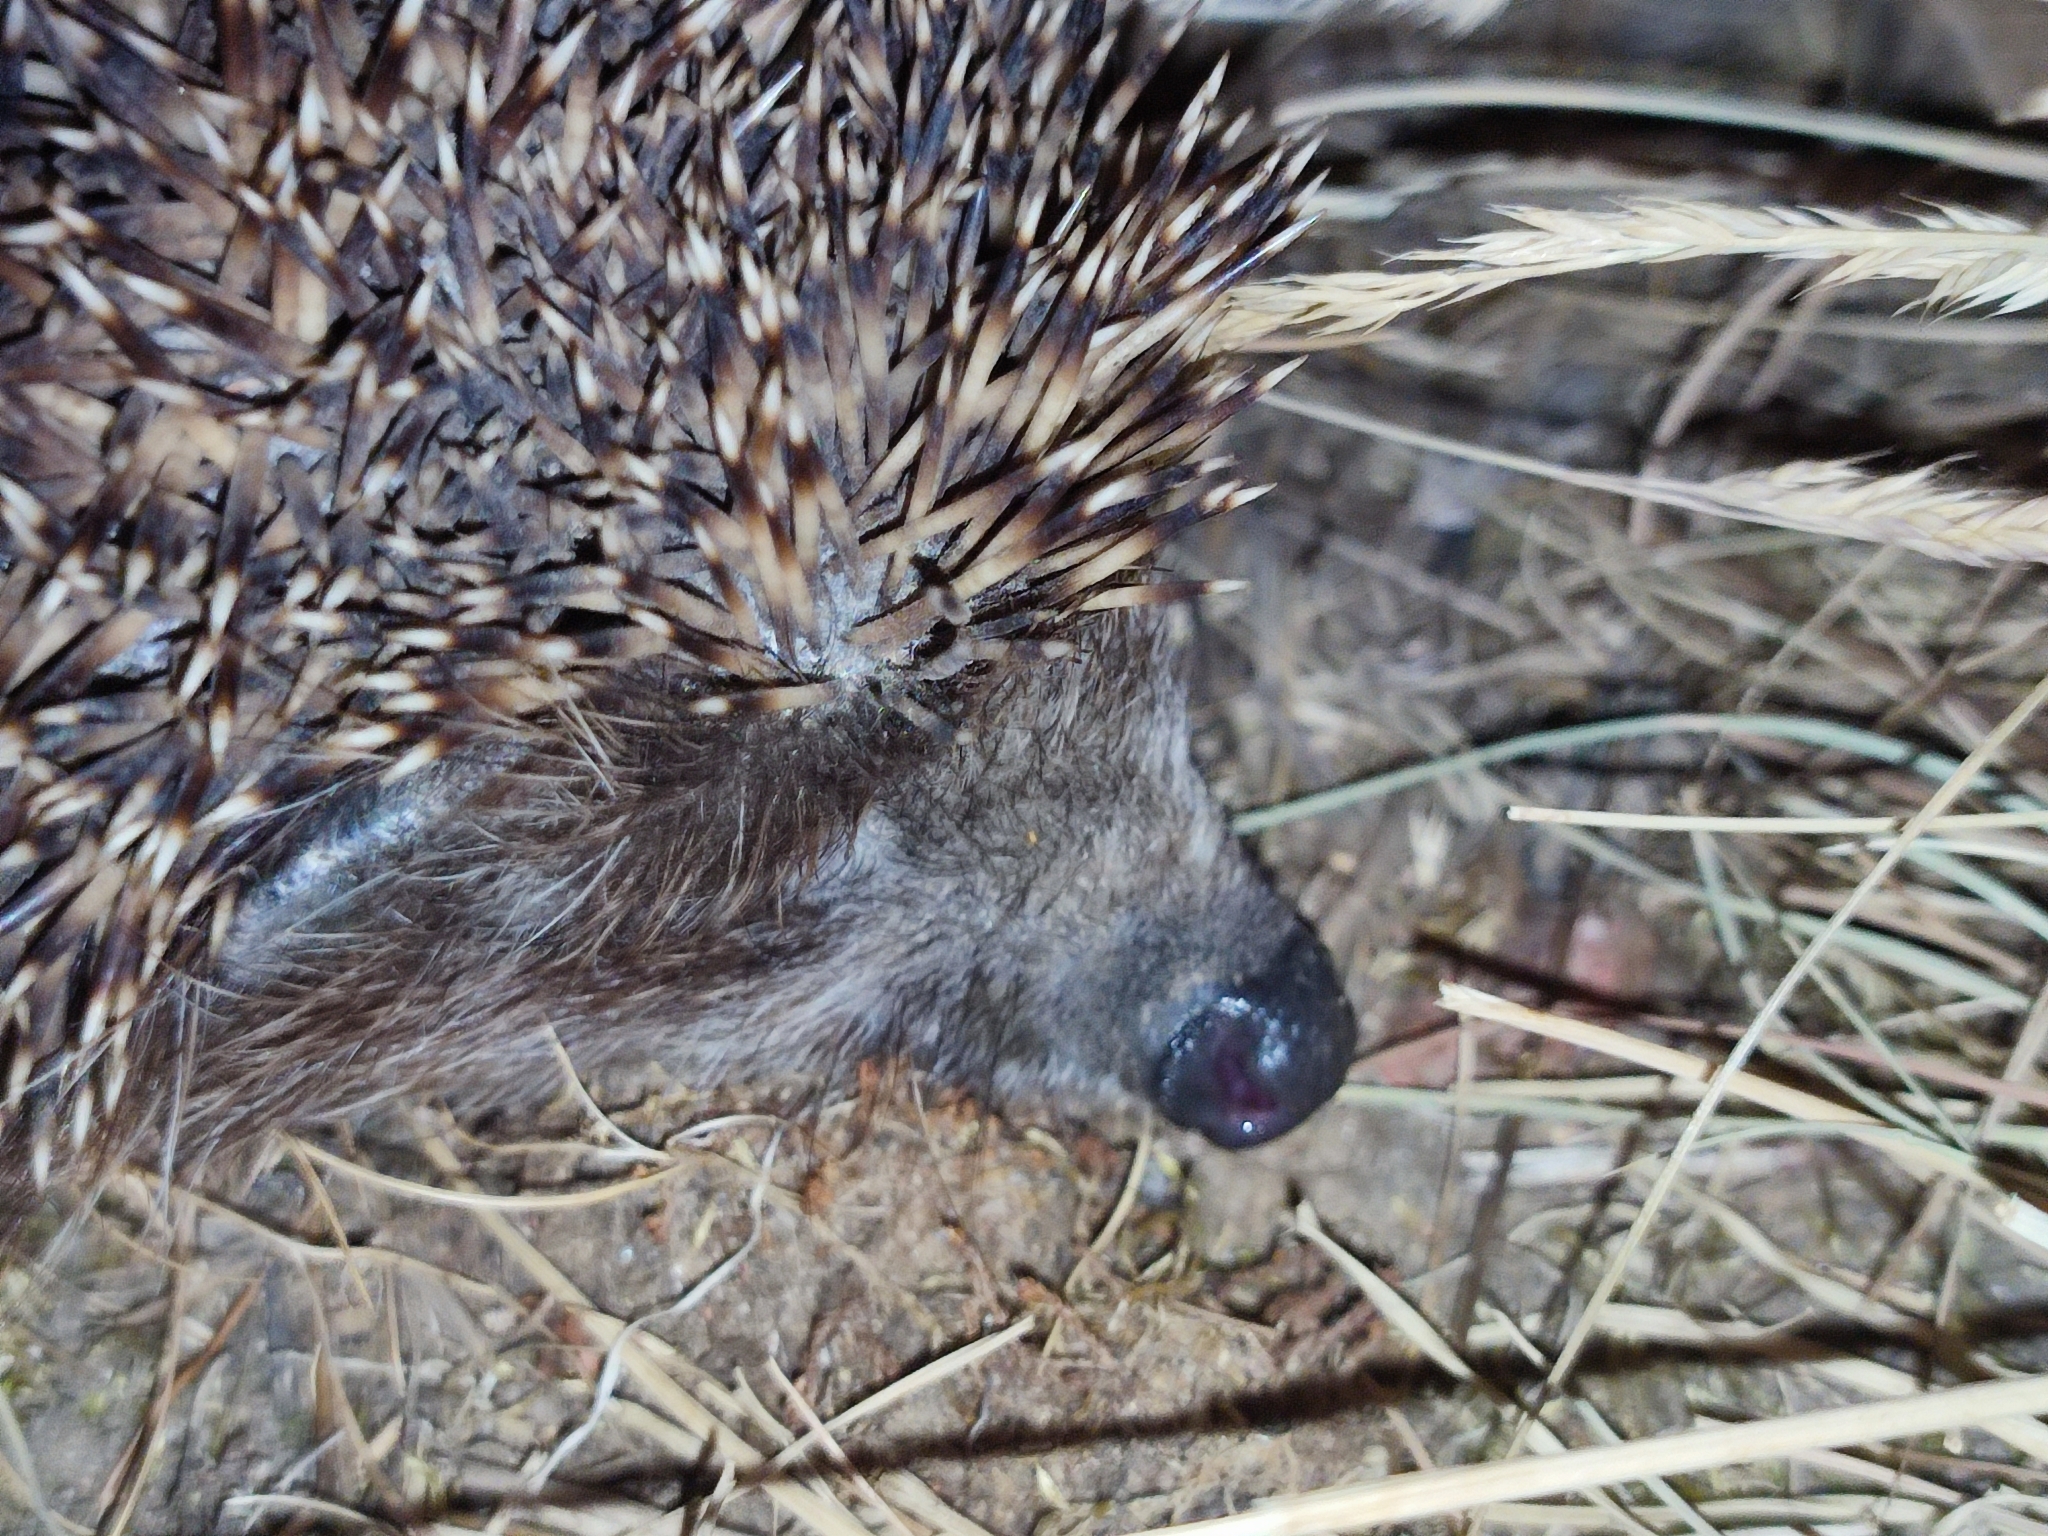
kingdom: Animalia
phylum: Chordata
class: Mammalia
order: Erinaceomorpha
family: Erinaceidae
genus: Erinaceus
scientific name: Erinaceus roumanicus
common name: Northern white-breasted hedgehog
